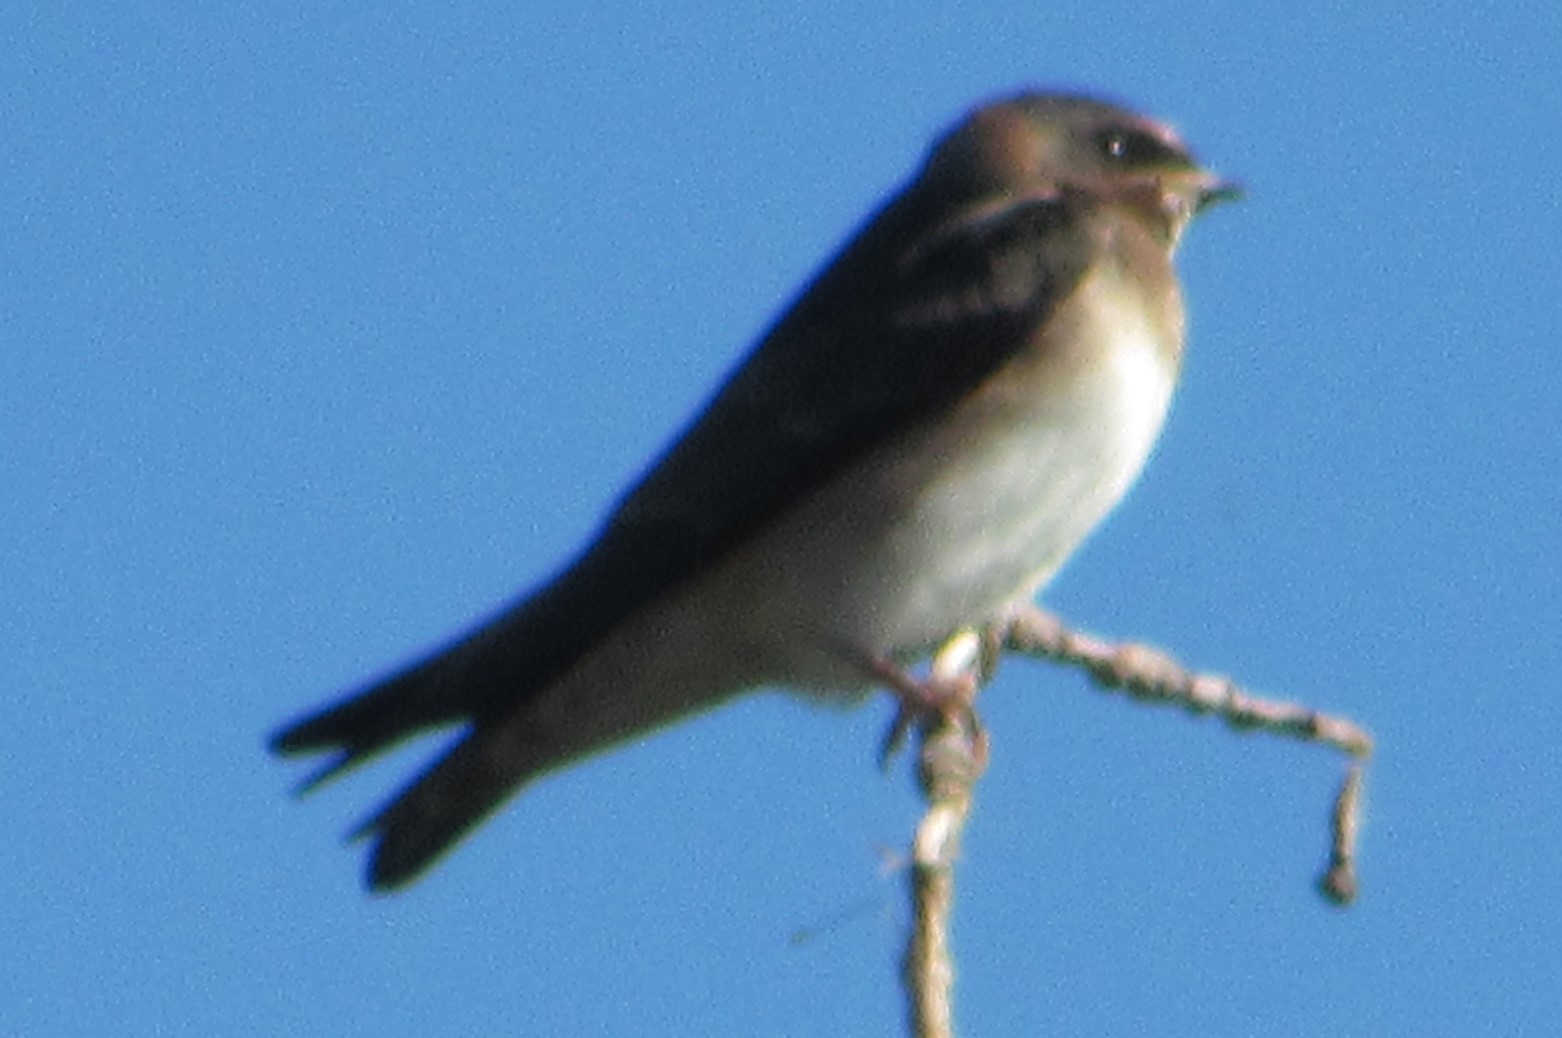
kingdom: Animalia
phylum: Chordata
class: Aves
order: Passeriformes
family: Hirundinidae
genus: Petrochelidon
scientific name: Petrochelidon pyrrhonota
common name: American cliff swallow
